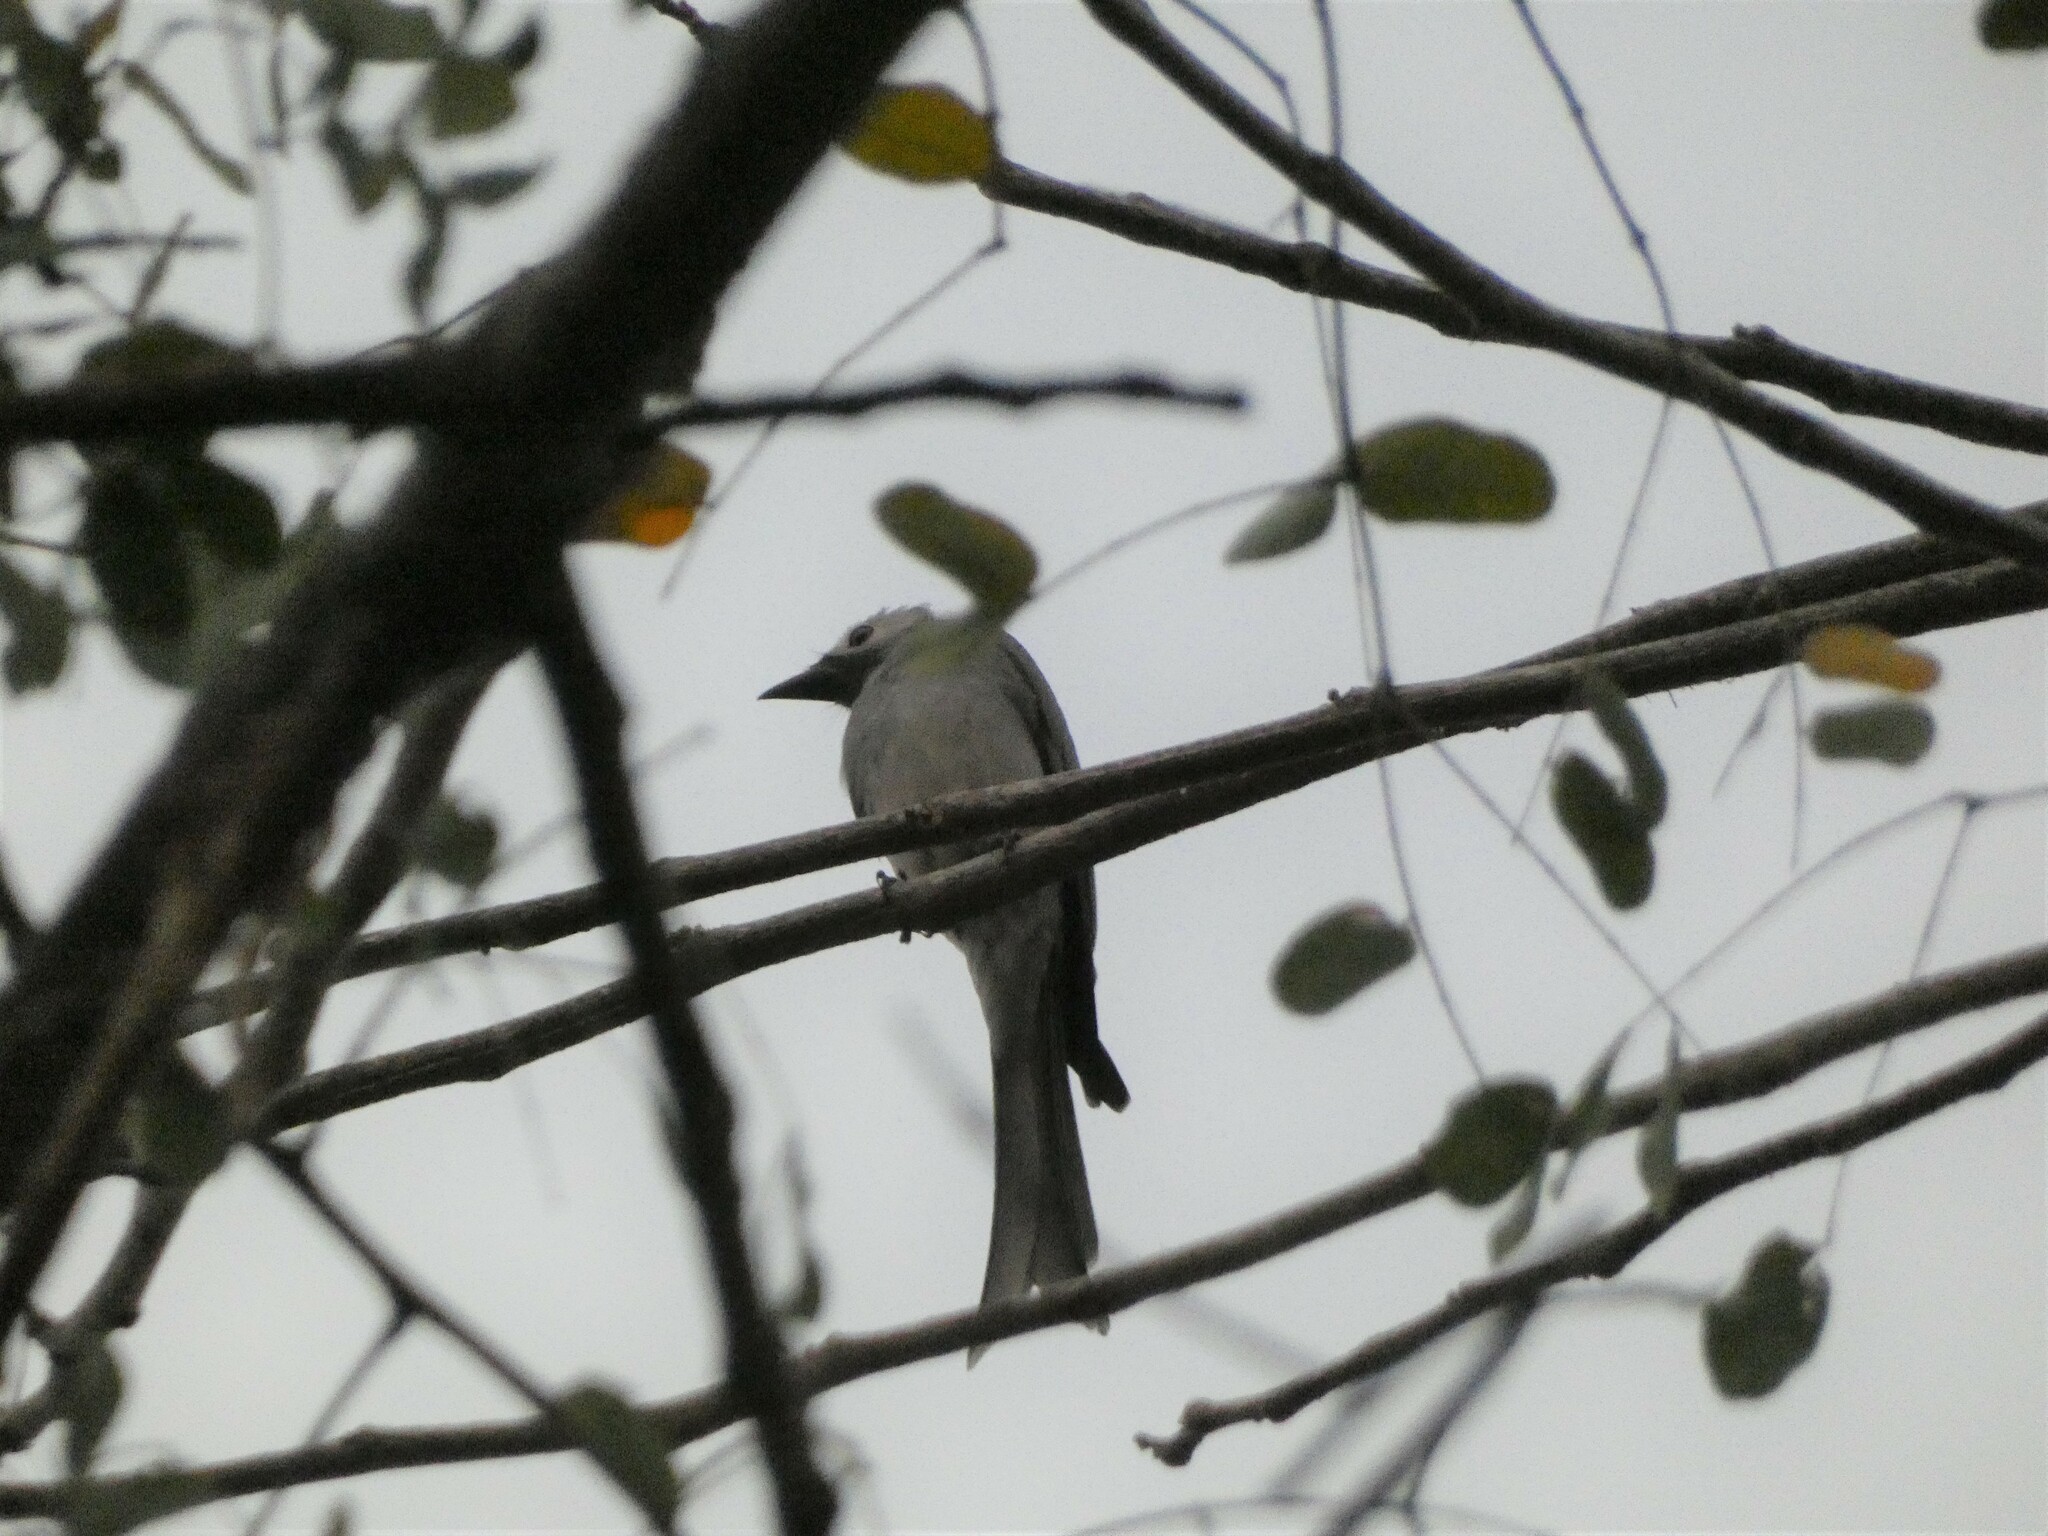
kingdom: Animalia
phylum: Chordata
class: Aves
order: Passeriformes
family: Dicruridae
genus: Dicrurus
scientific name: Dicrurus leucophaeus
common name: Ashy drongo
